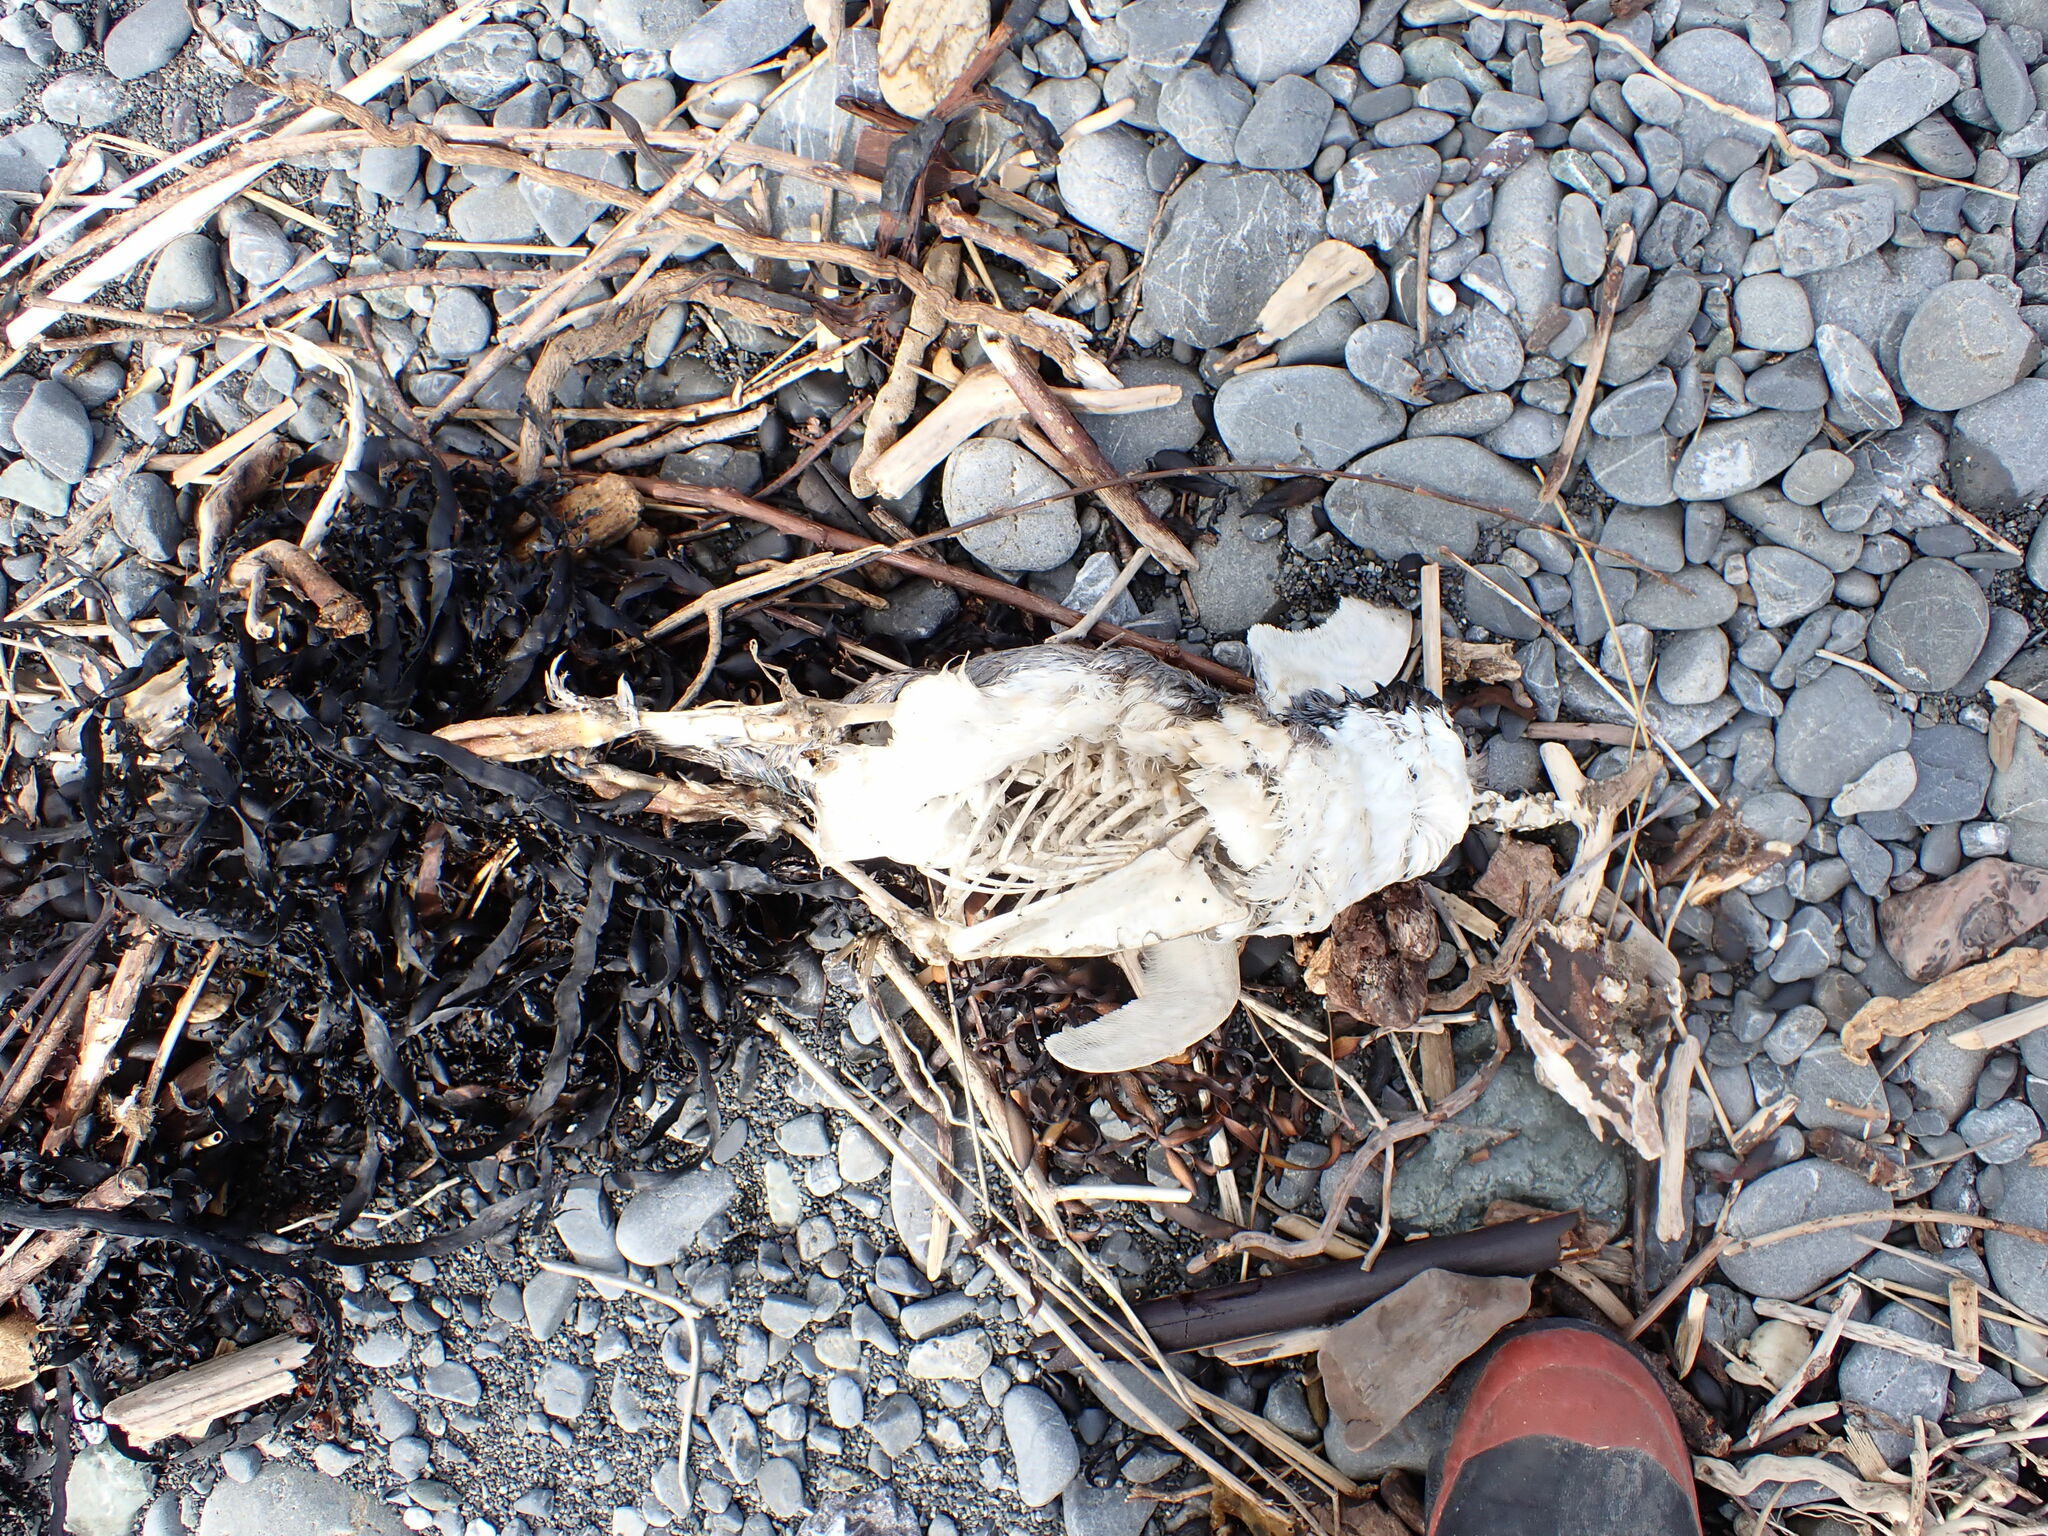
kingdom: Animalia
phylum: Chordata
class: Aves
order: Sphenisciformes
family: Spheniscidae
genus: Eudyptula
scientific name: Eudyptula minor
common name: Little penguin
